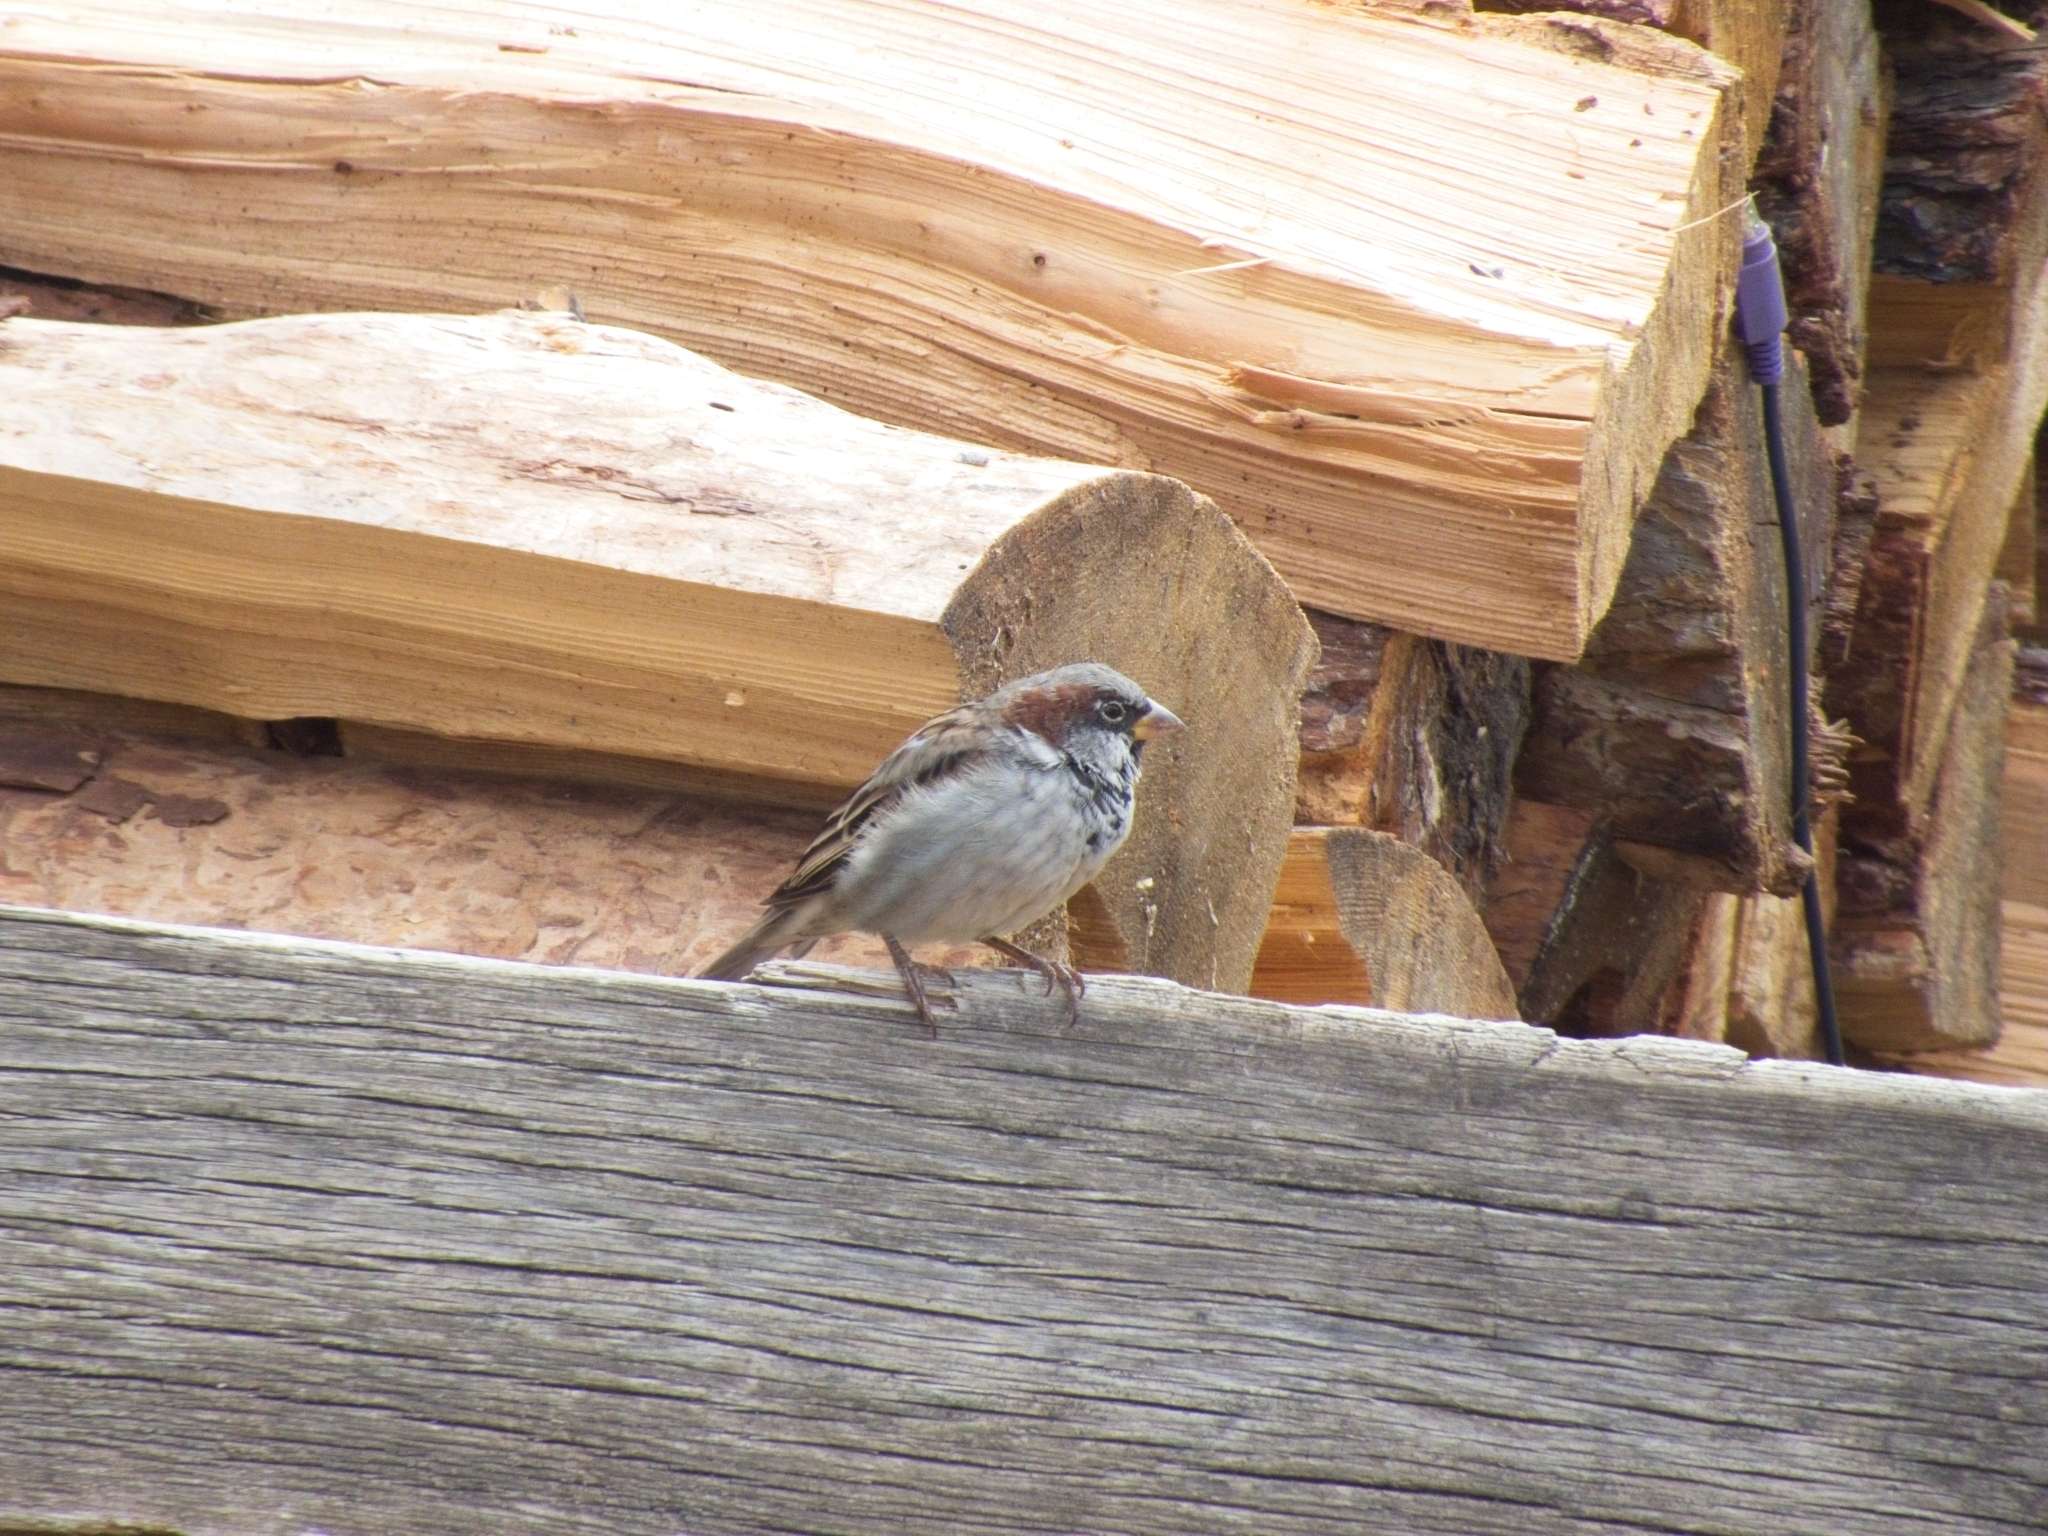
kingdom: Animalia
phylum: Chordata
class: Aves
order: Passeriformes
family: Passeridae
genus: Passer
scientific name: Passer domesticus
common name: House sparrow
